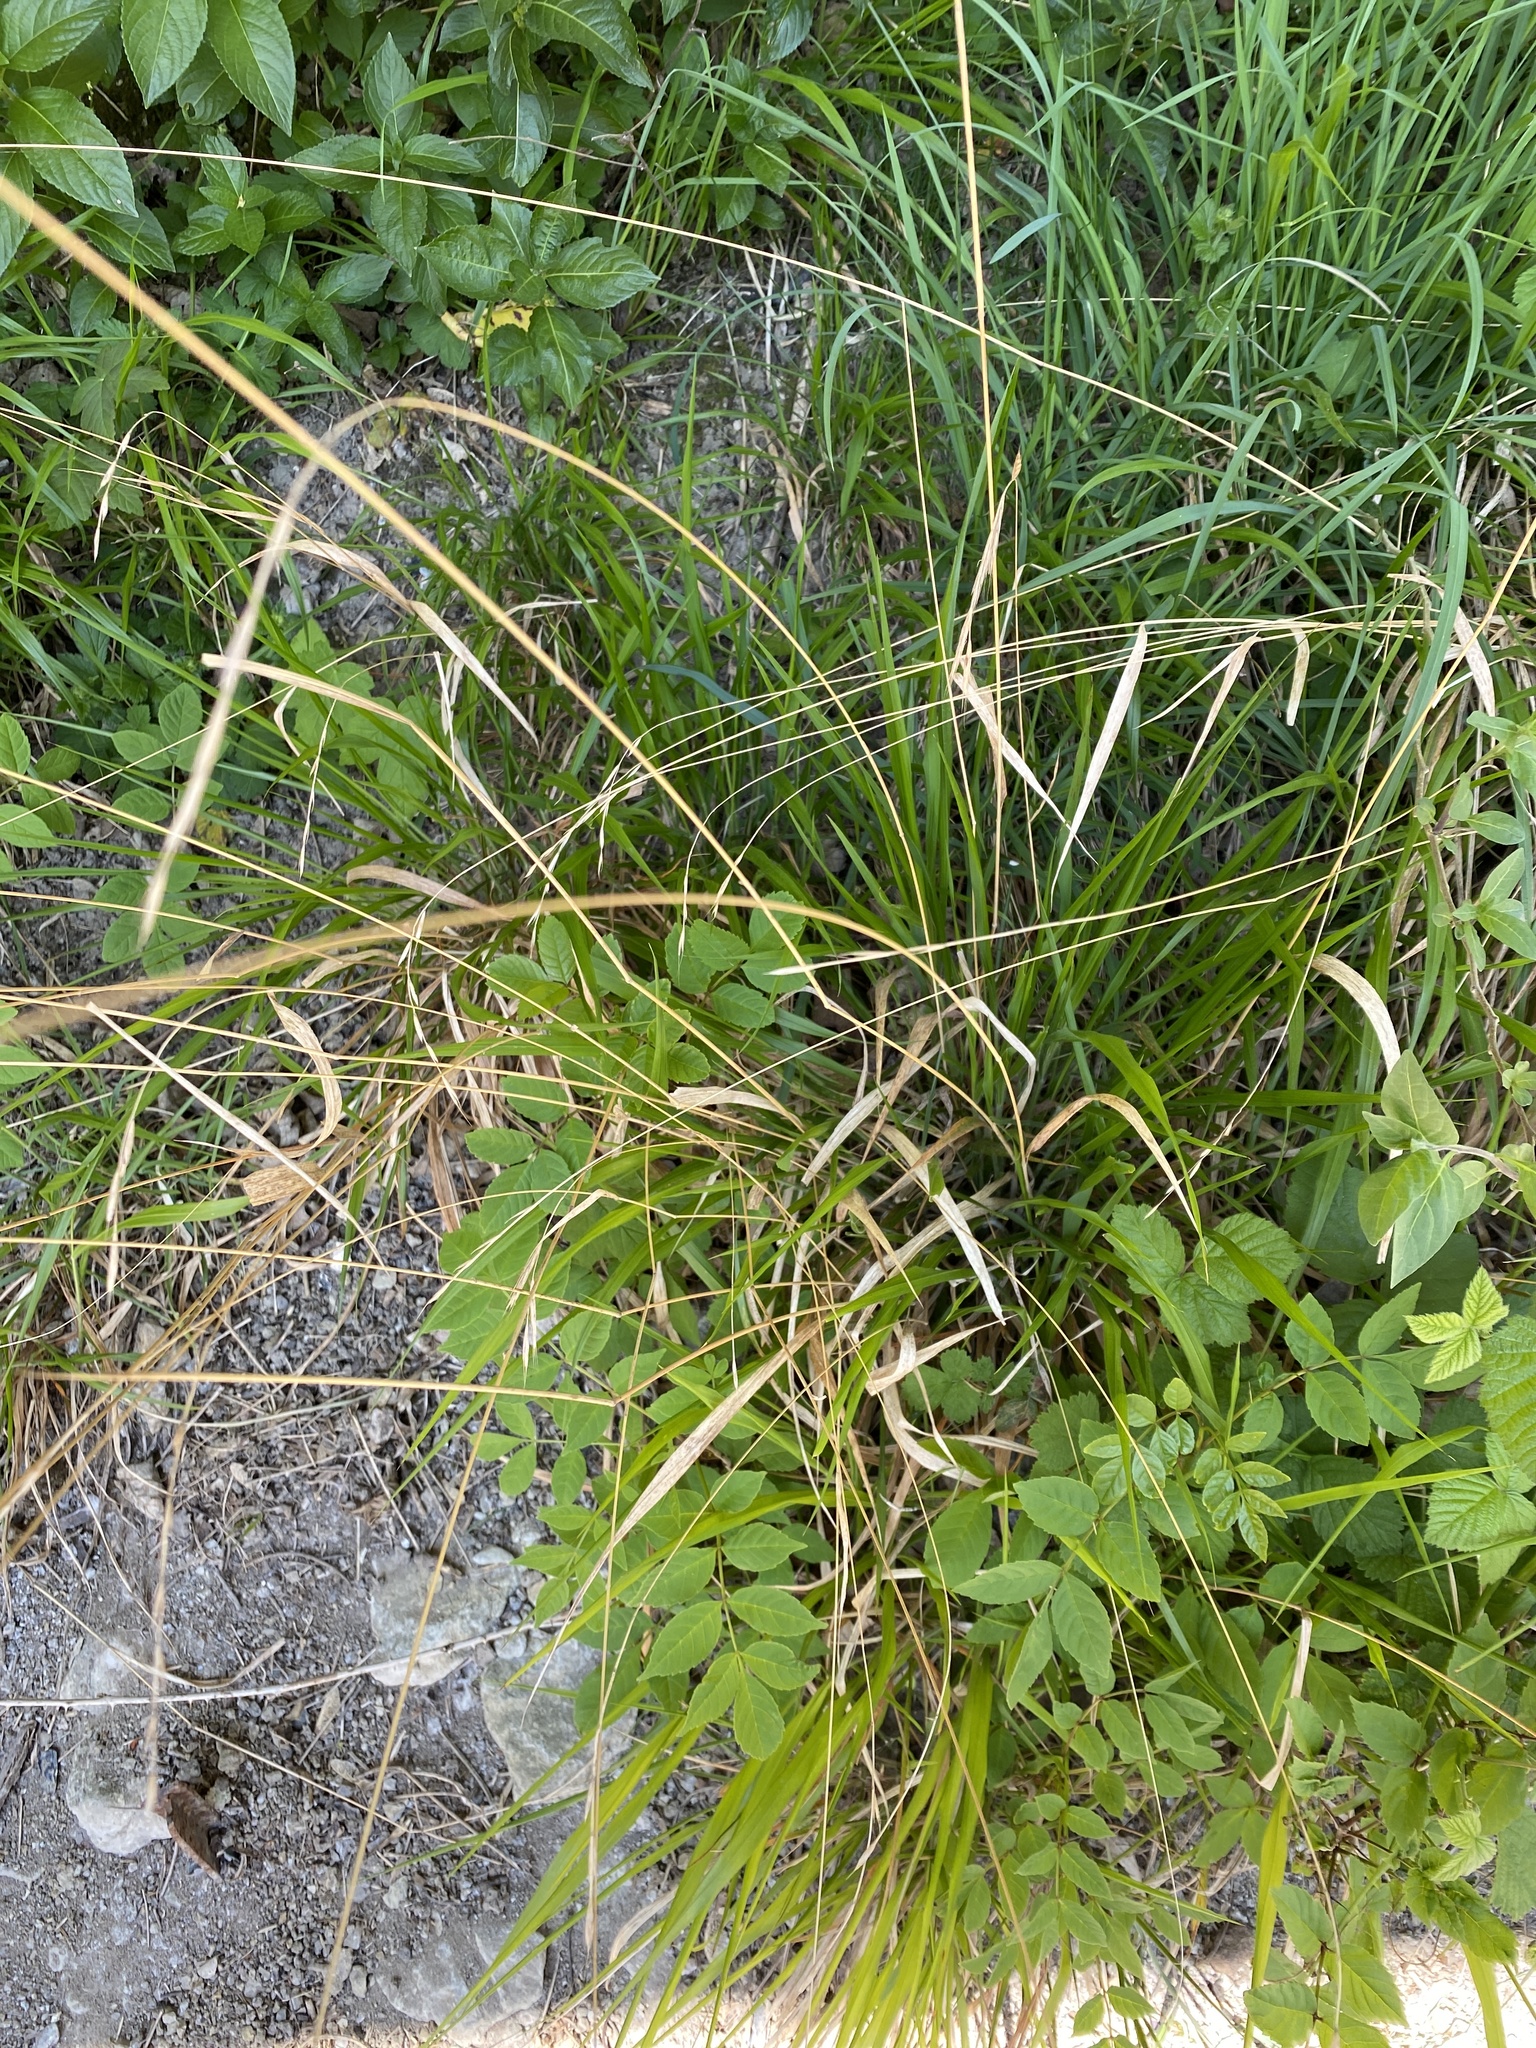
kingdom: Plantae
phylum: Tracheophyta
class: Liliopsida
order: Poales
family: Poaceae
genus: Deschampsia
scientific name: Deschampsia cespitosa
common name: Tufted hair-grass
